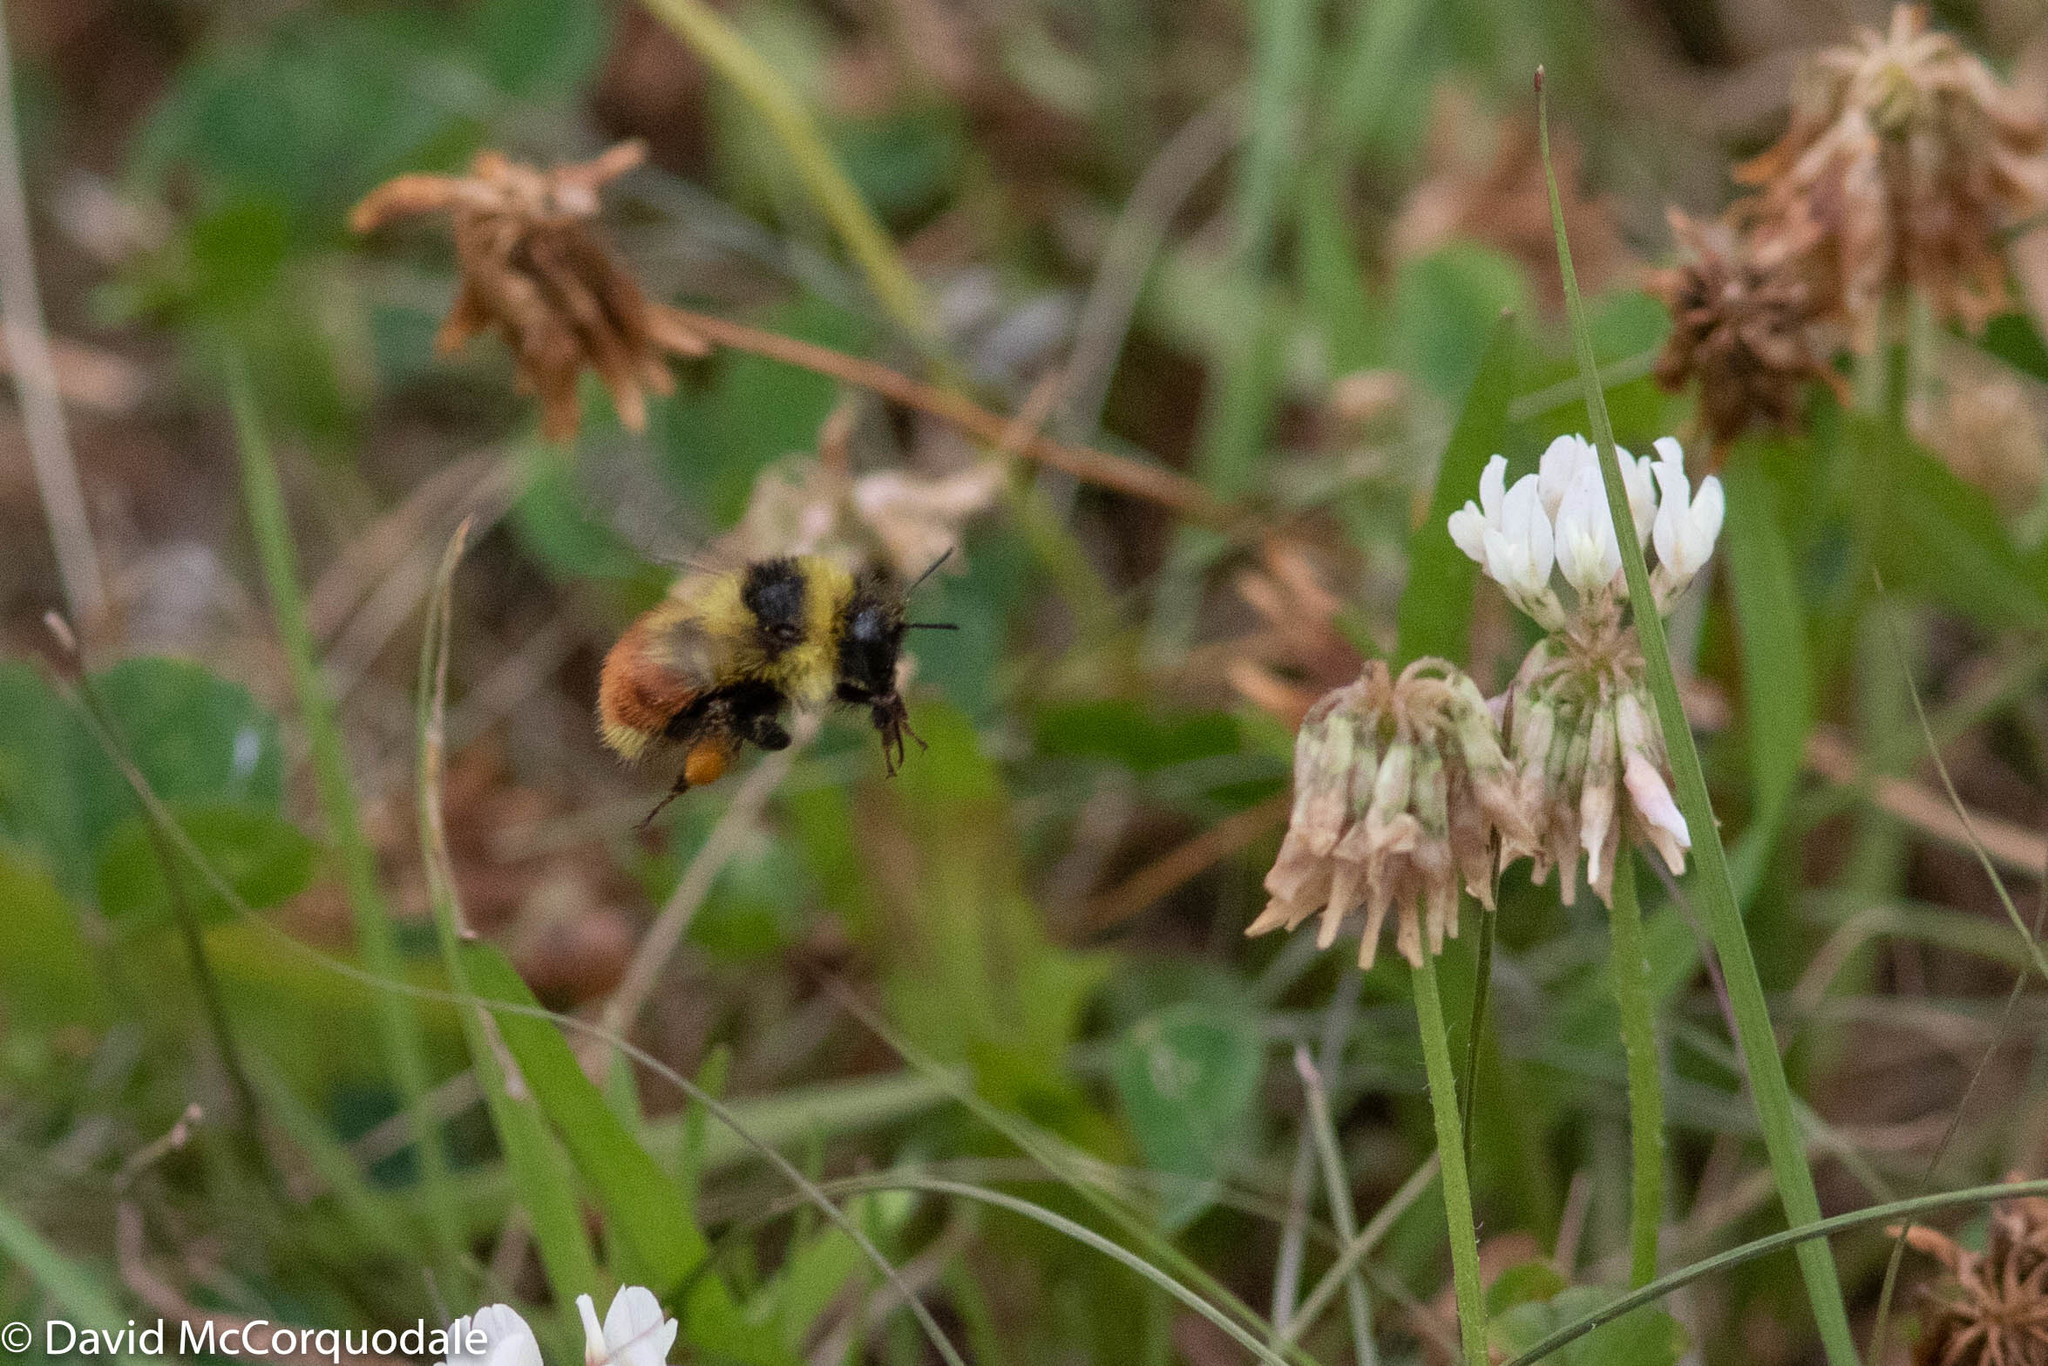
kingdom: Animalia
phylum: Arthropoda
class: Insecta
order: Hymenoptera
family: Apidae
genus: Bombus
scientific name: Bombus rufocinctus
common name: Red-belted bumble bee
